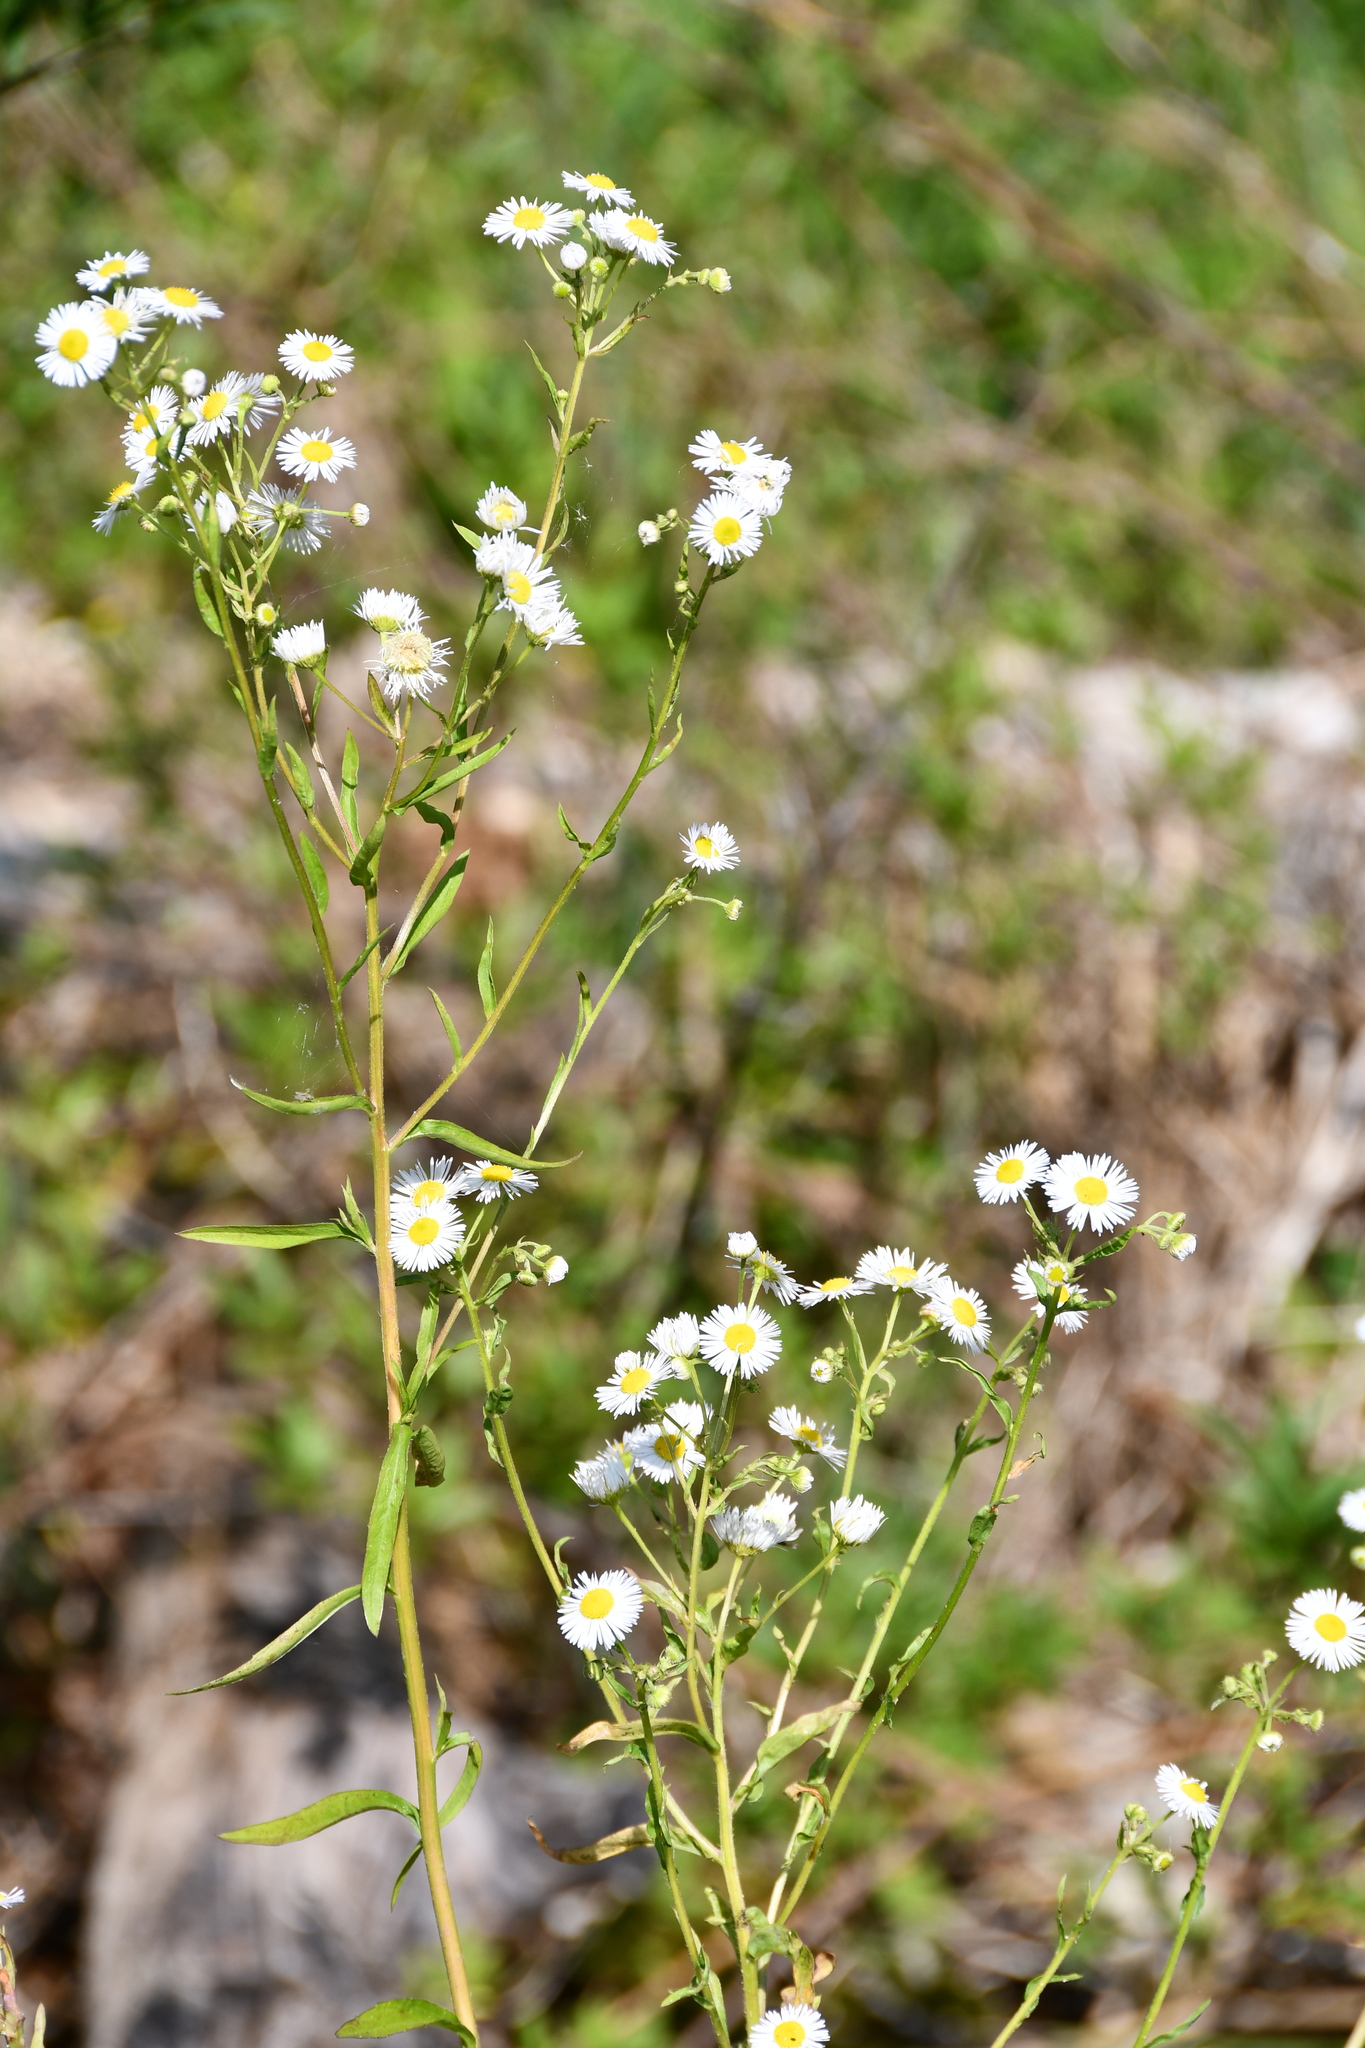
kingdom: Plantae
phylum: Tracheophyta
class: Magnoliopsida
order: Asterales
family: Asteraceae
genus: Erigeron
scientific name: Erigeron annuus
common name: Tall fleabane
